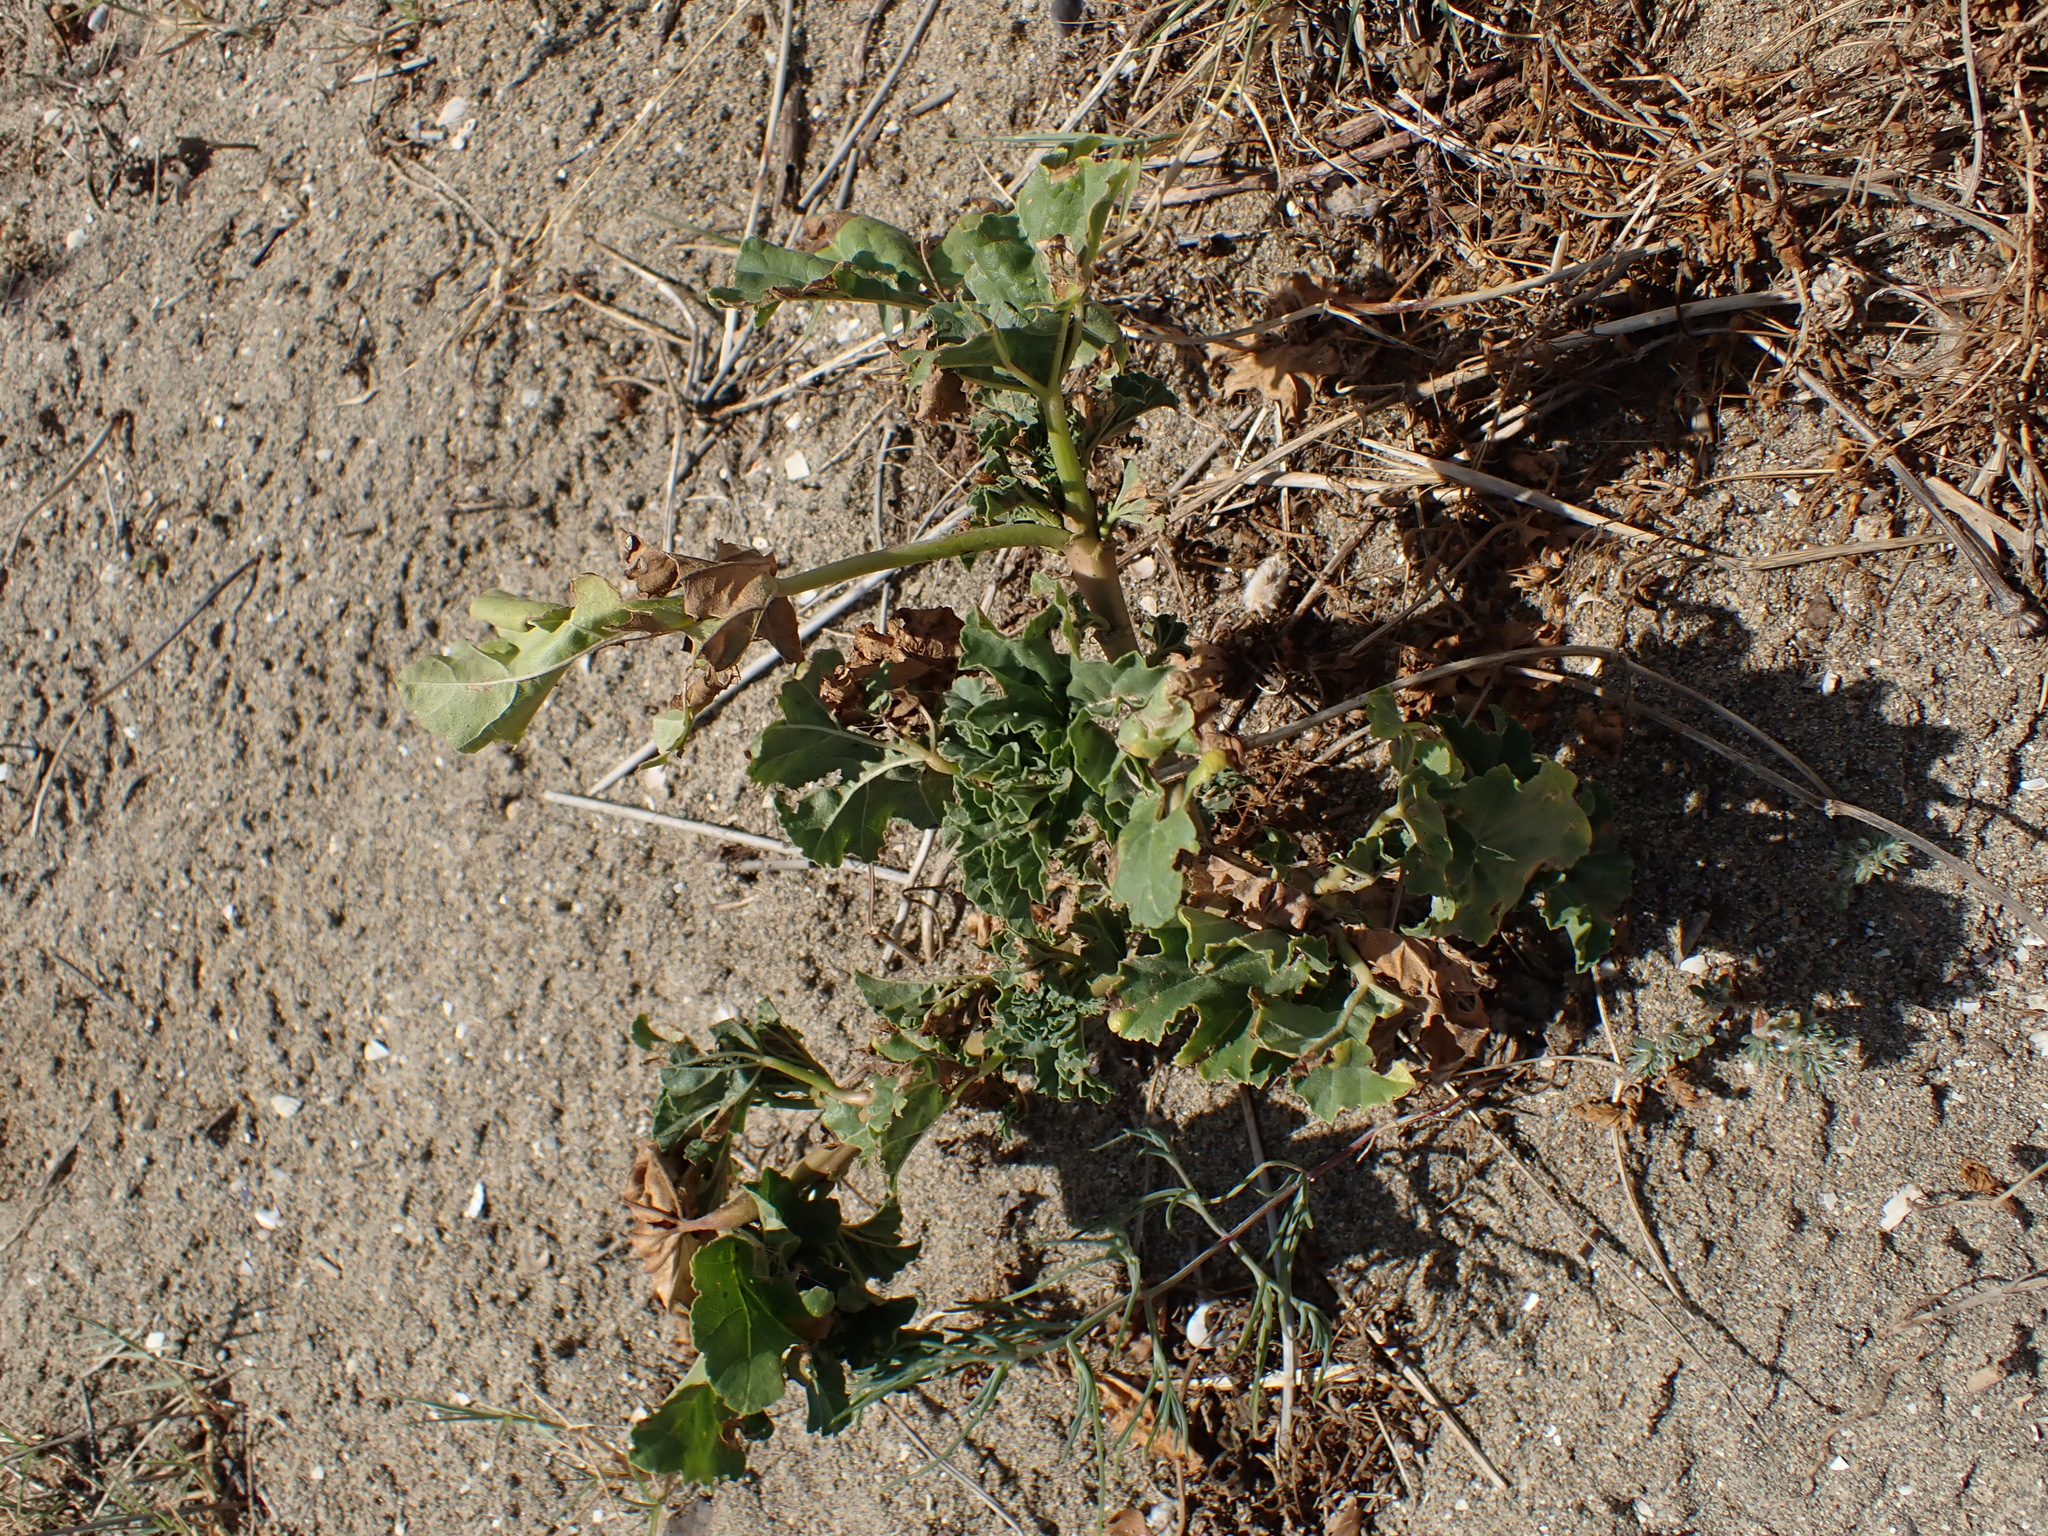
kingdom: Plantae
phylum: Tracheophyta
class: Magnoliopsida
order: Malvales
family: Malvaceae
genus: Malva
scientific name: Malva arborea
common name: Tree mallow
